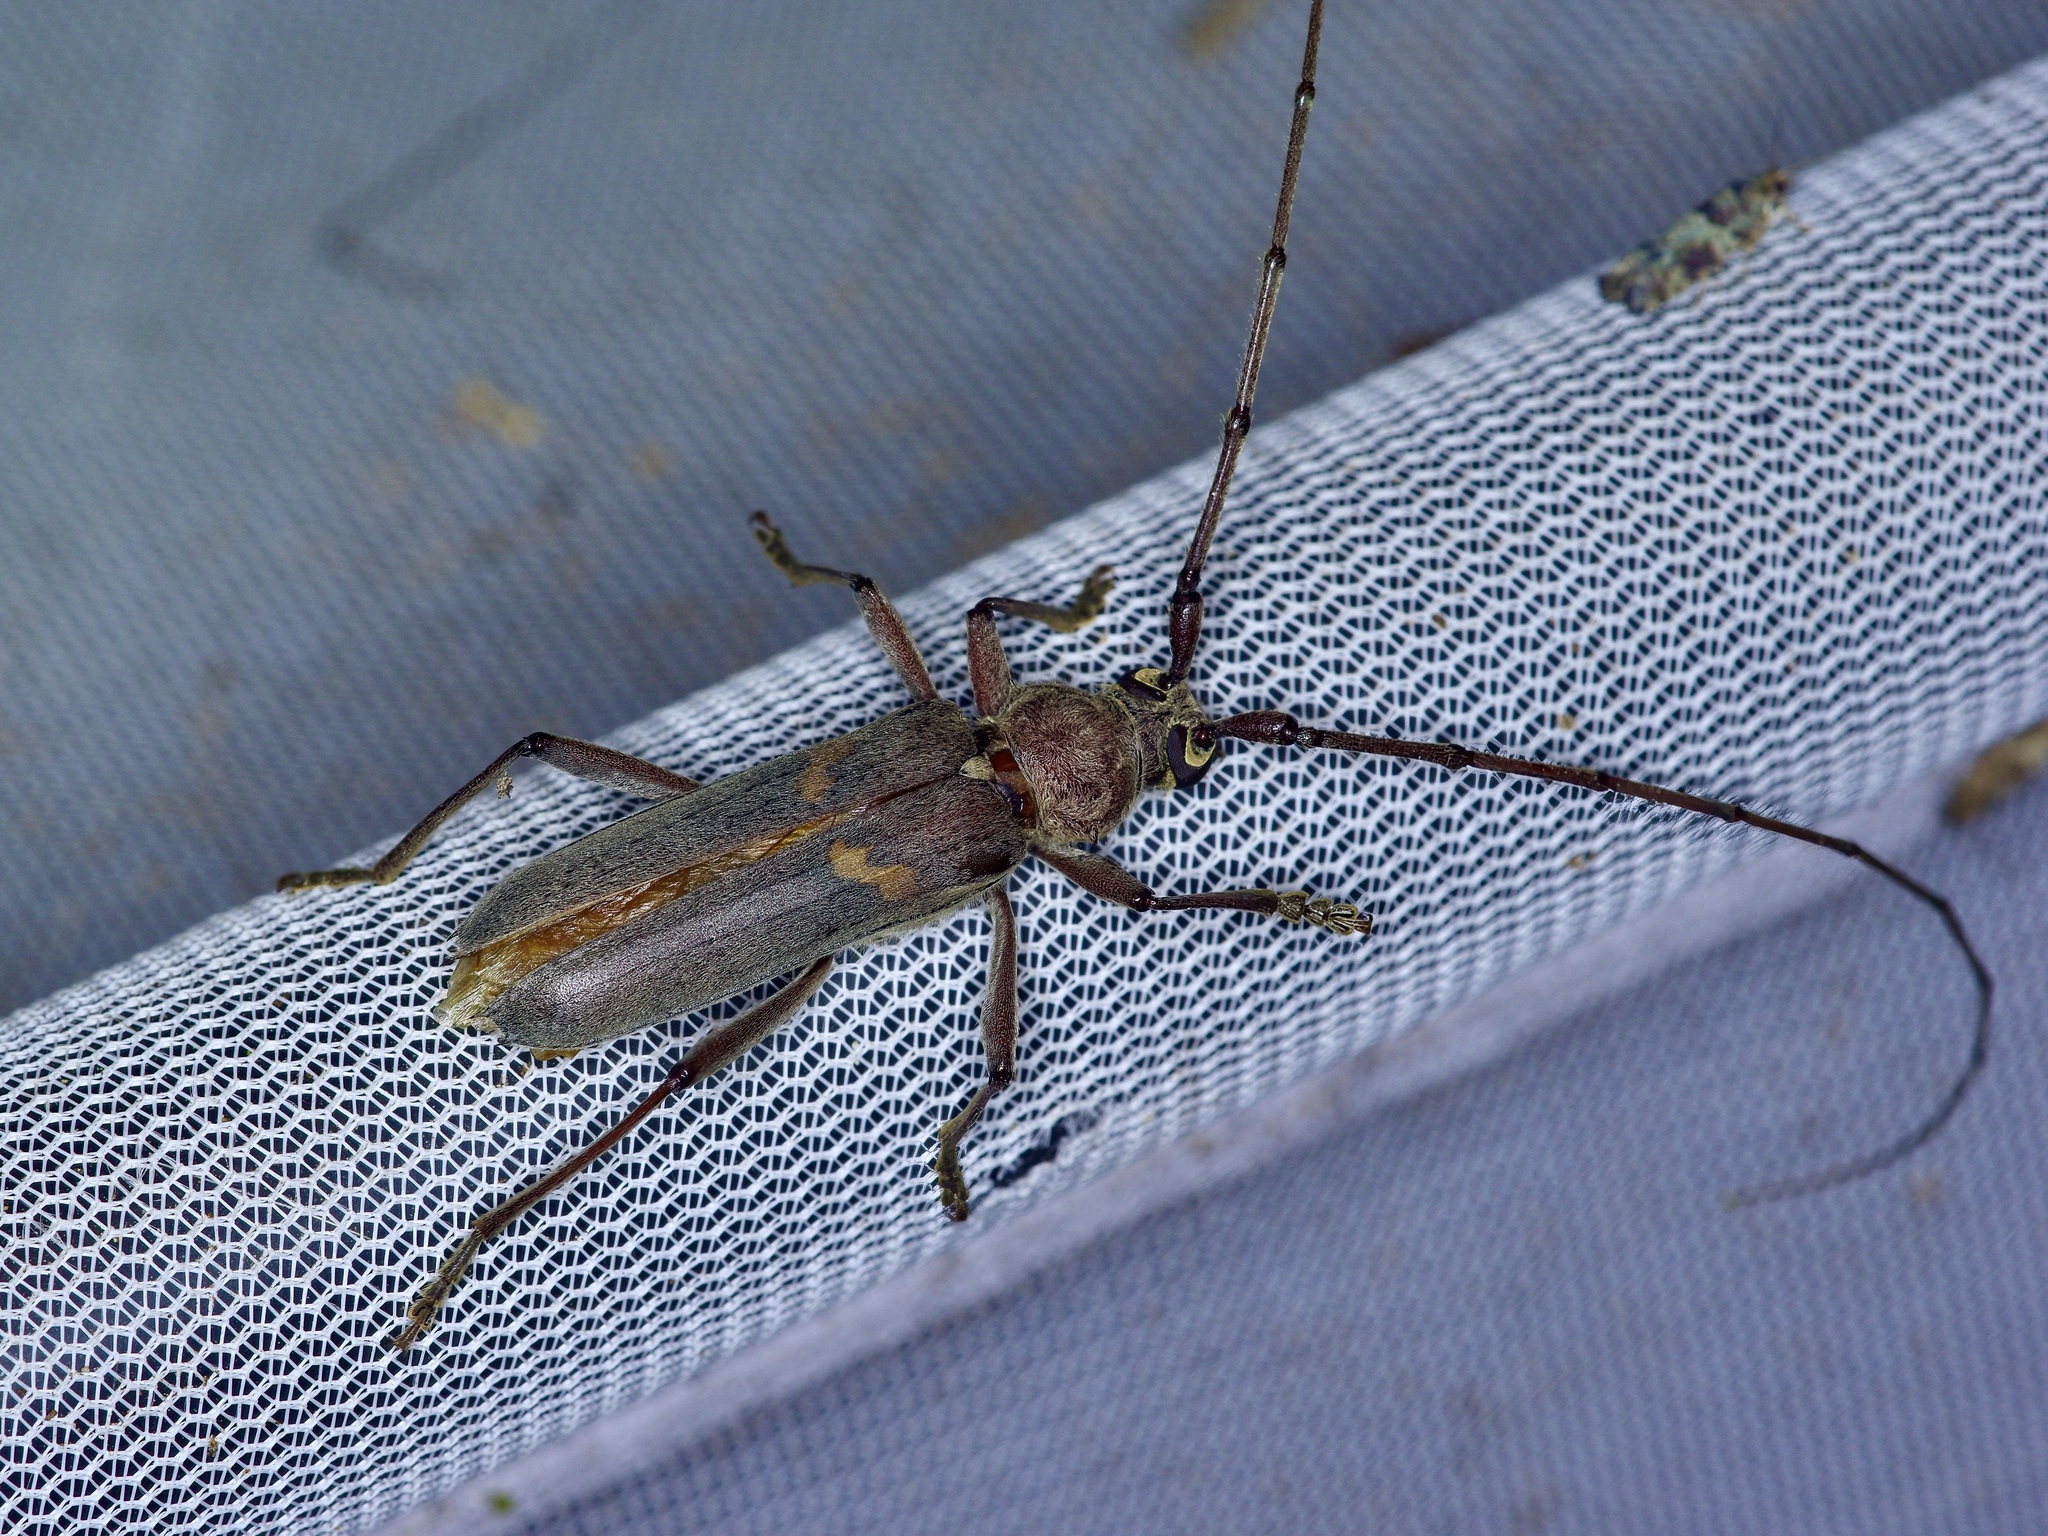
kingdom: Animalia
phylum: Arthropoda
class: Insecta
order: Coleoptera
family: Cerambycidae
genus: Knulliana
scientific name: Knulliana cincta
